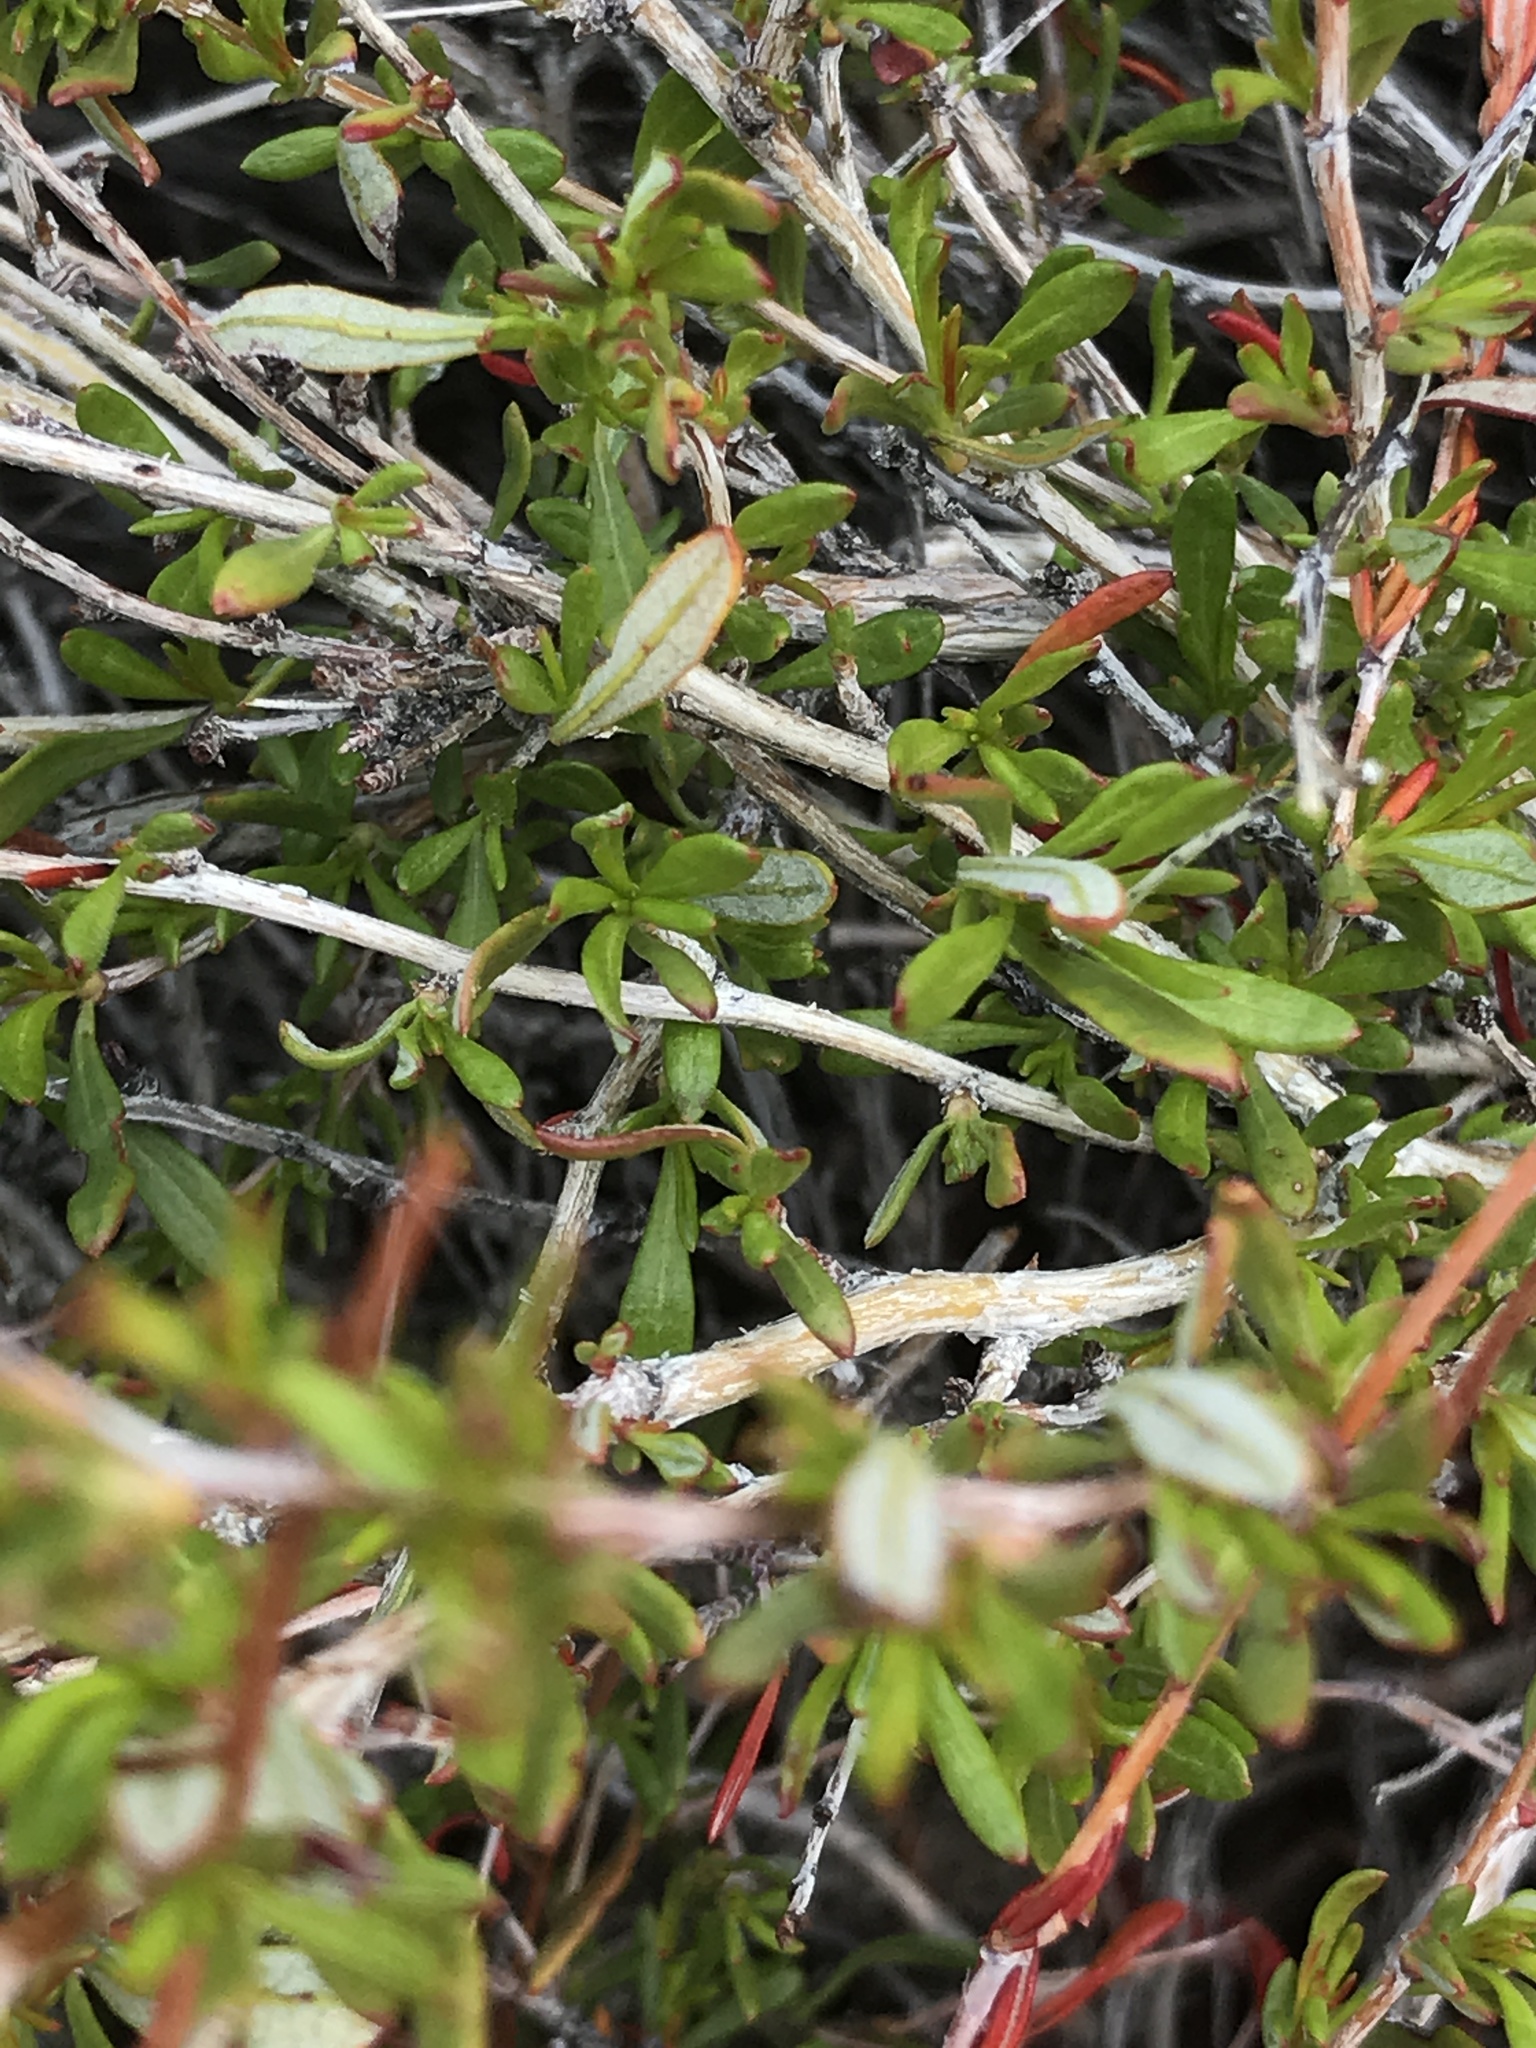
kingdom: Plantae
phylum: Tracheophyta
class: Magnoliopsida
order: Caryophyllales
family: Polygonaceae
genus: Eriogonum
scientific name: Eriogonum fasciculatum
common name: California wild buckwheat
